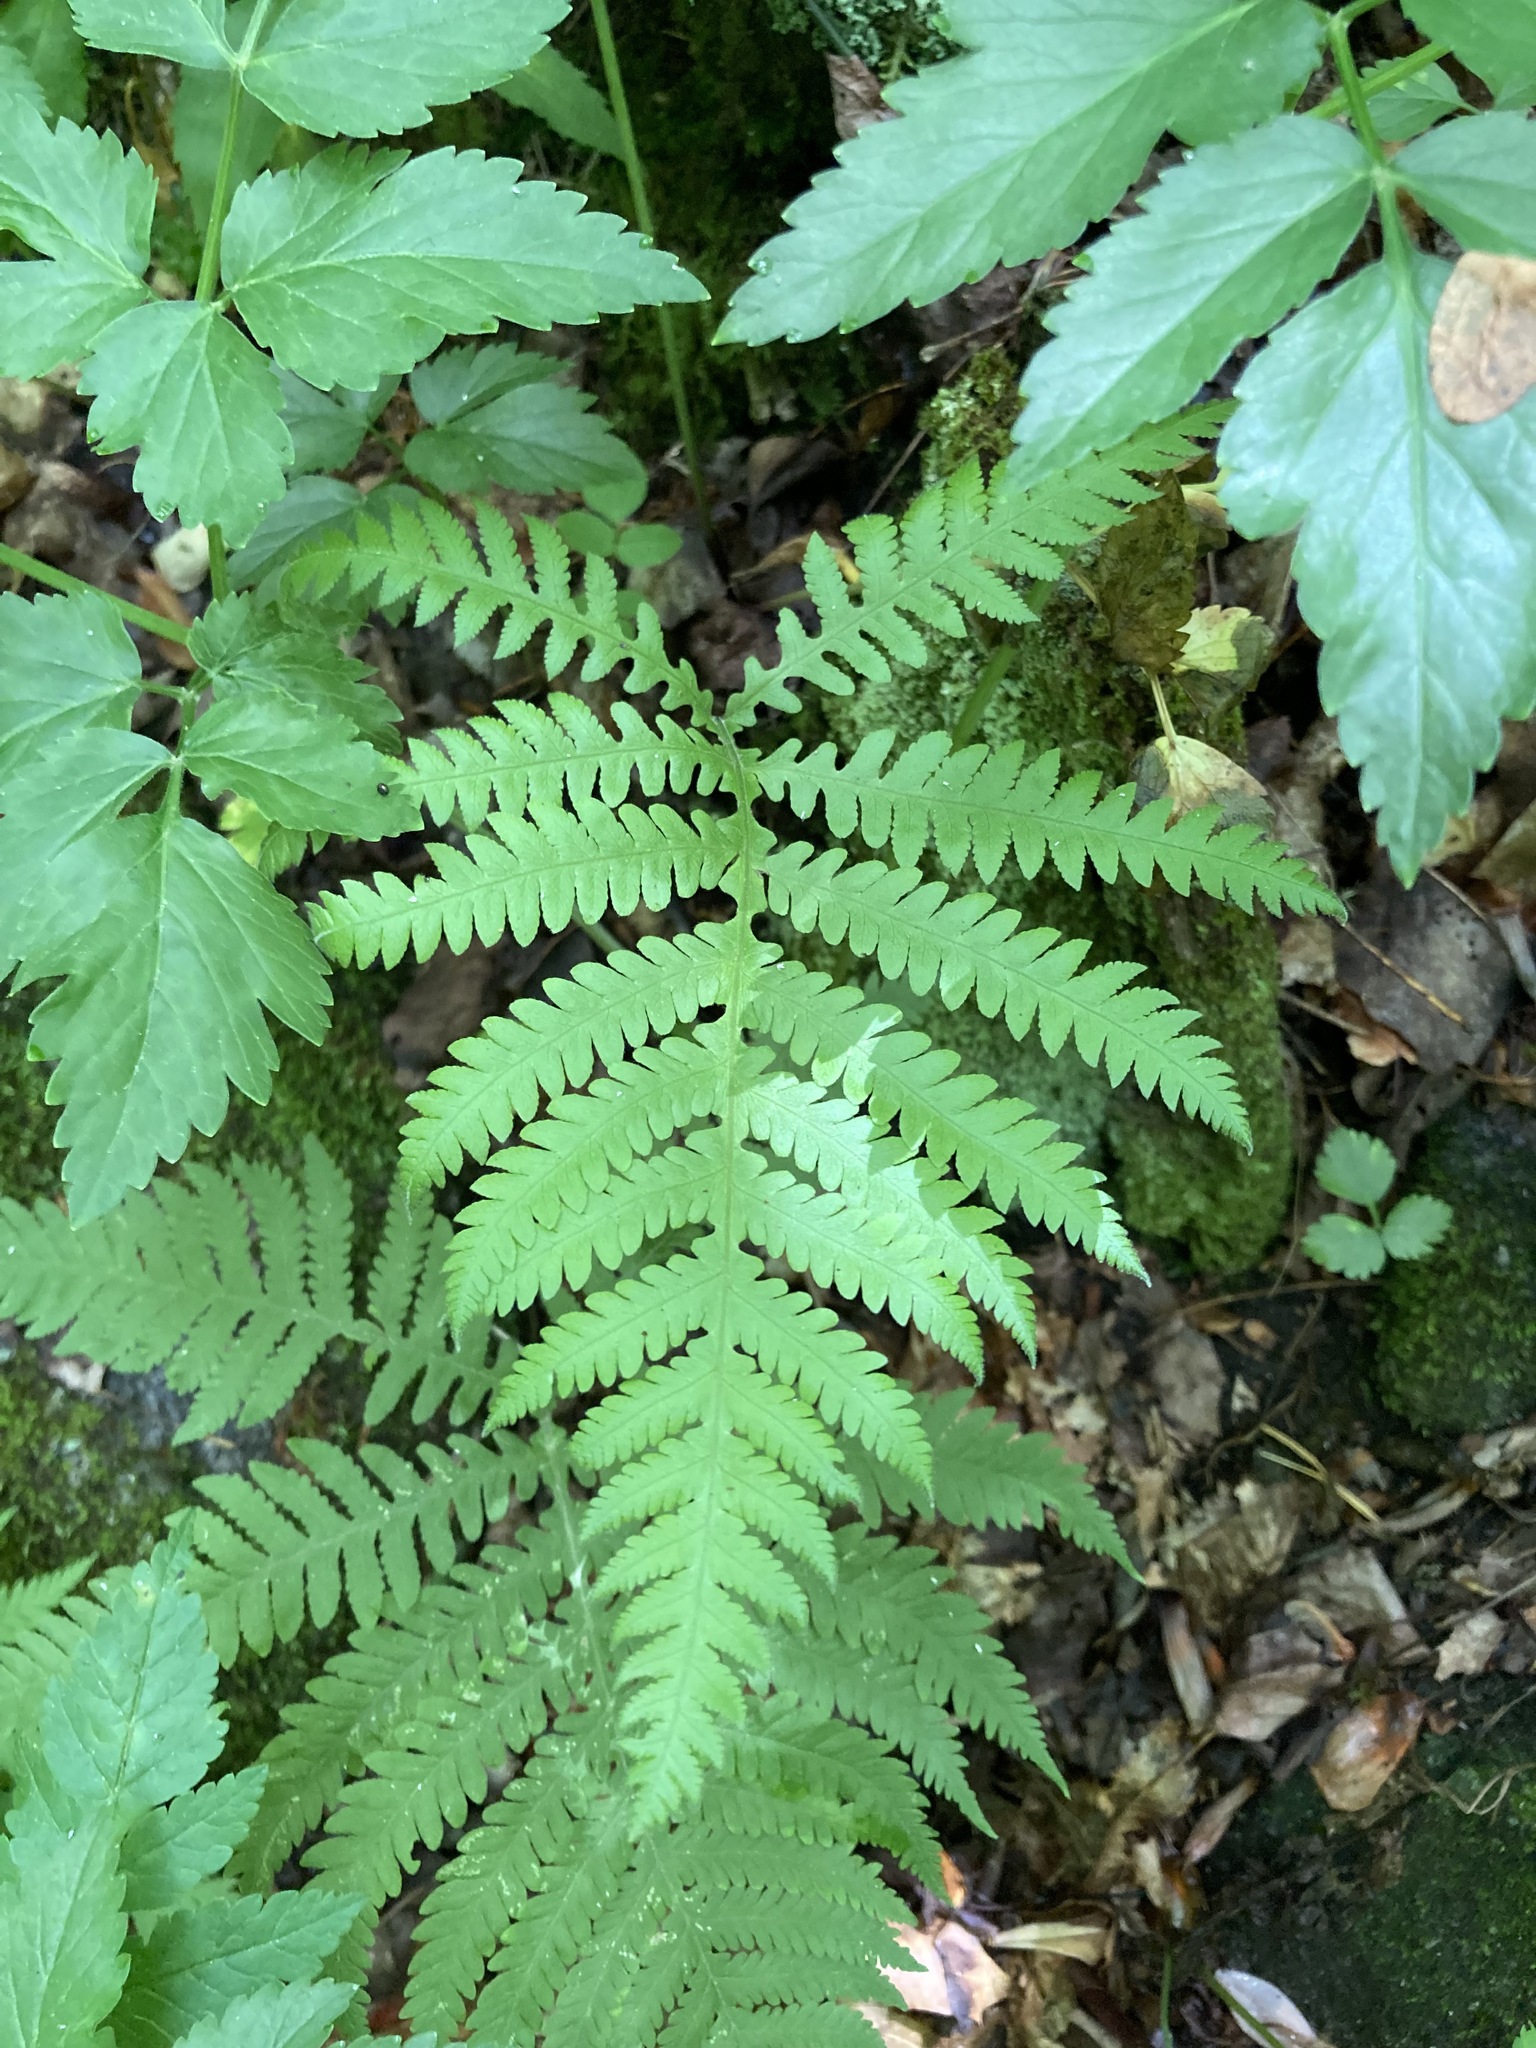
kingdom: Plantae
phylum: Tracheophyta
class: Polypodiopsida
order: Polypodiales
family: Thelypteridaceae
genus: Phegopteris
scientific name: Phegopteris hexagonoptera
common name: Broad beech fern
